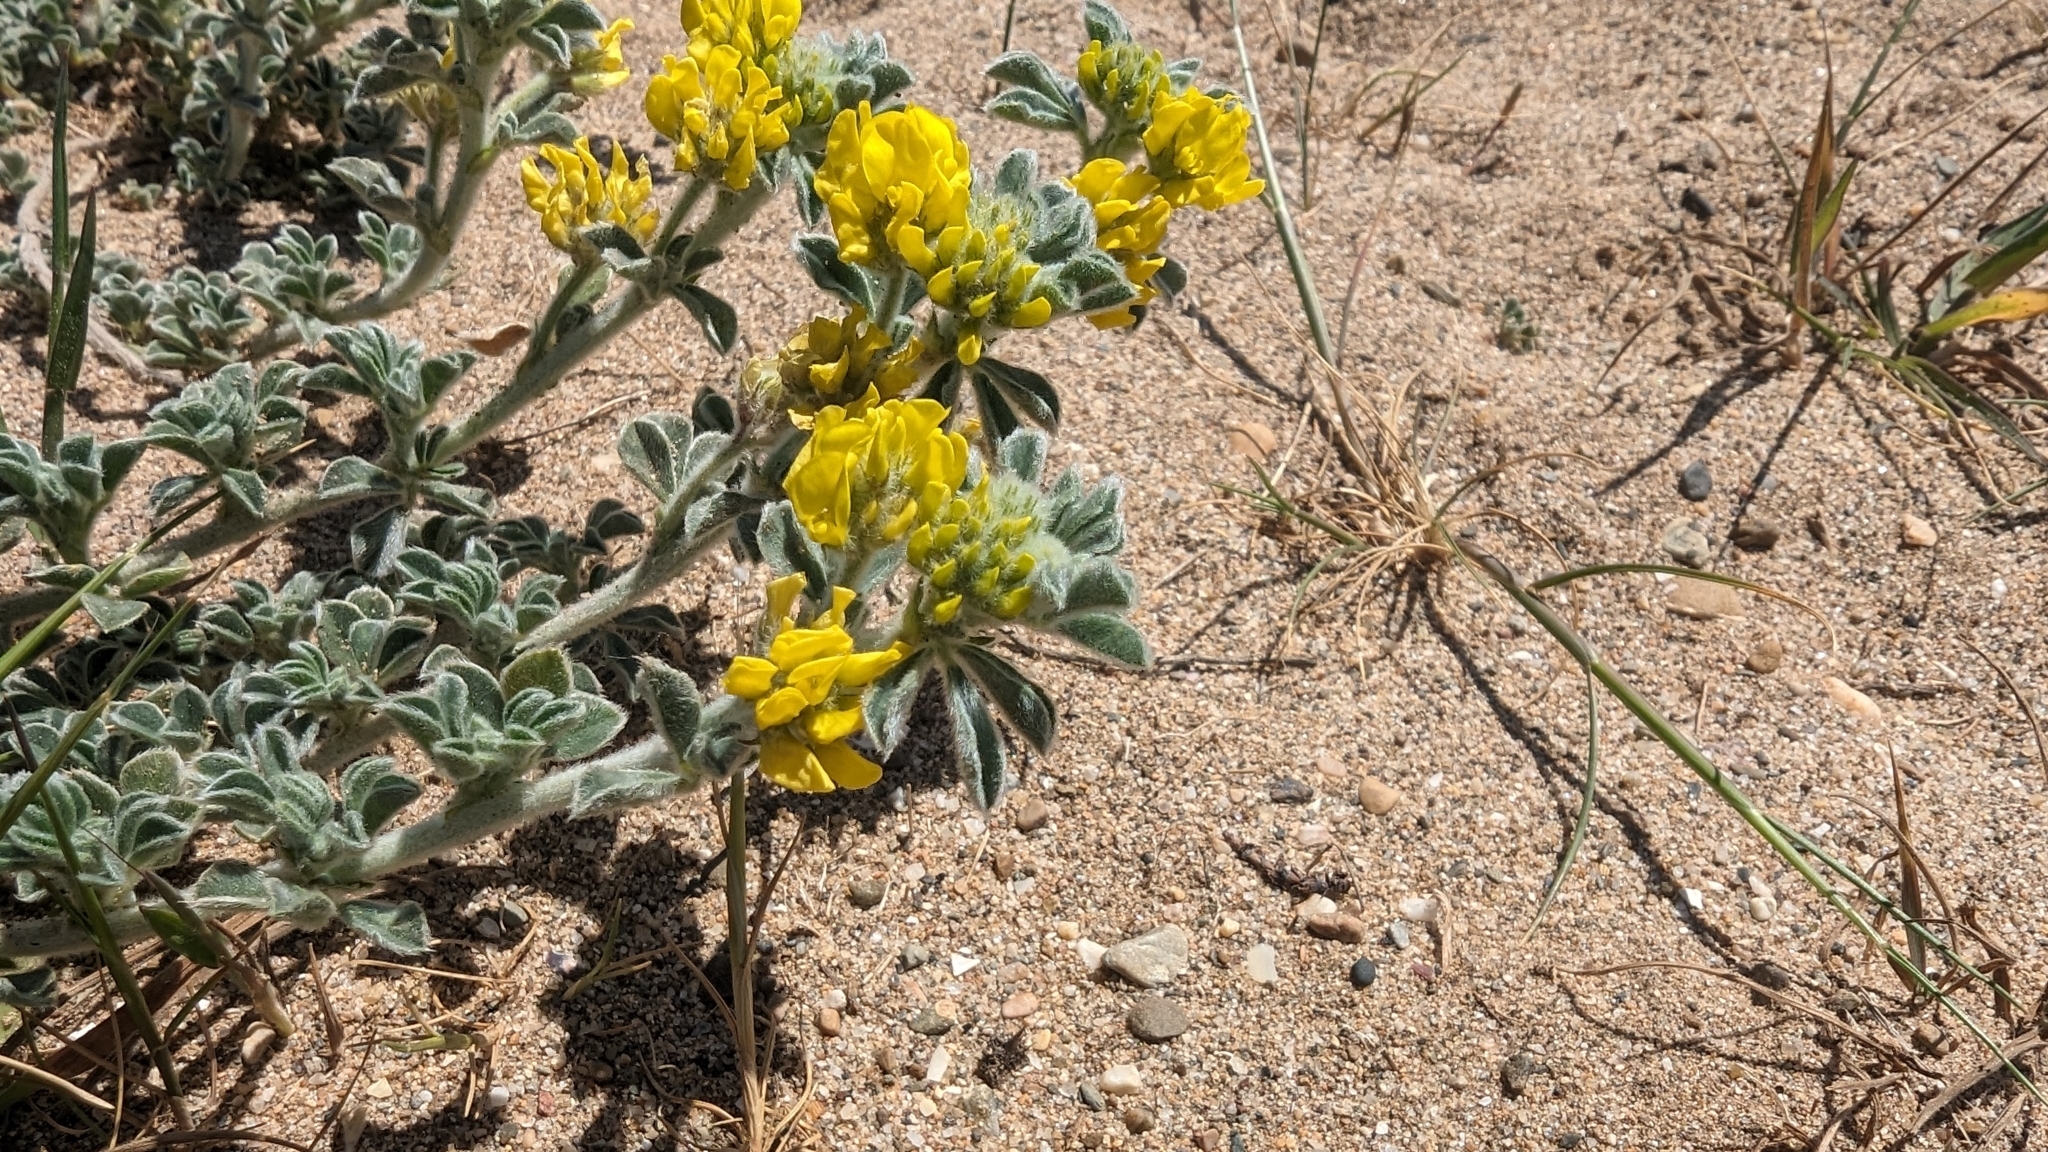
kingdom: Plantae
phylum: Tracheophyta
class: Magnoliopsida
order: Fabales
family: Fabaceae
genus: Medicago
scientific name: Medicago marina
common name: Sea medick
